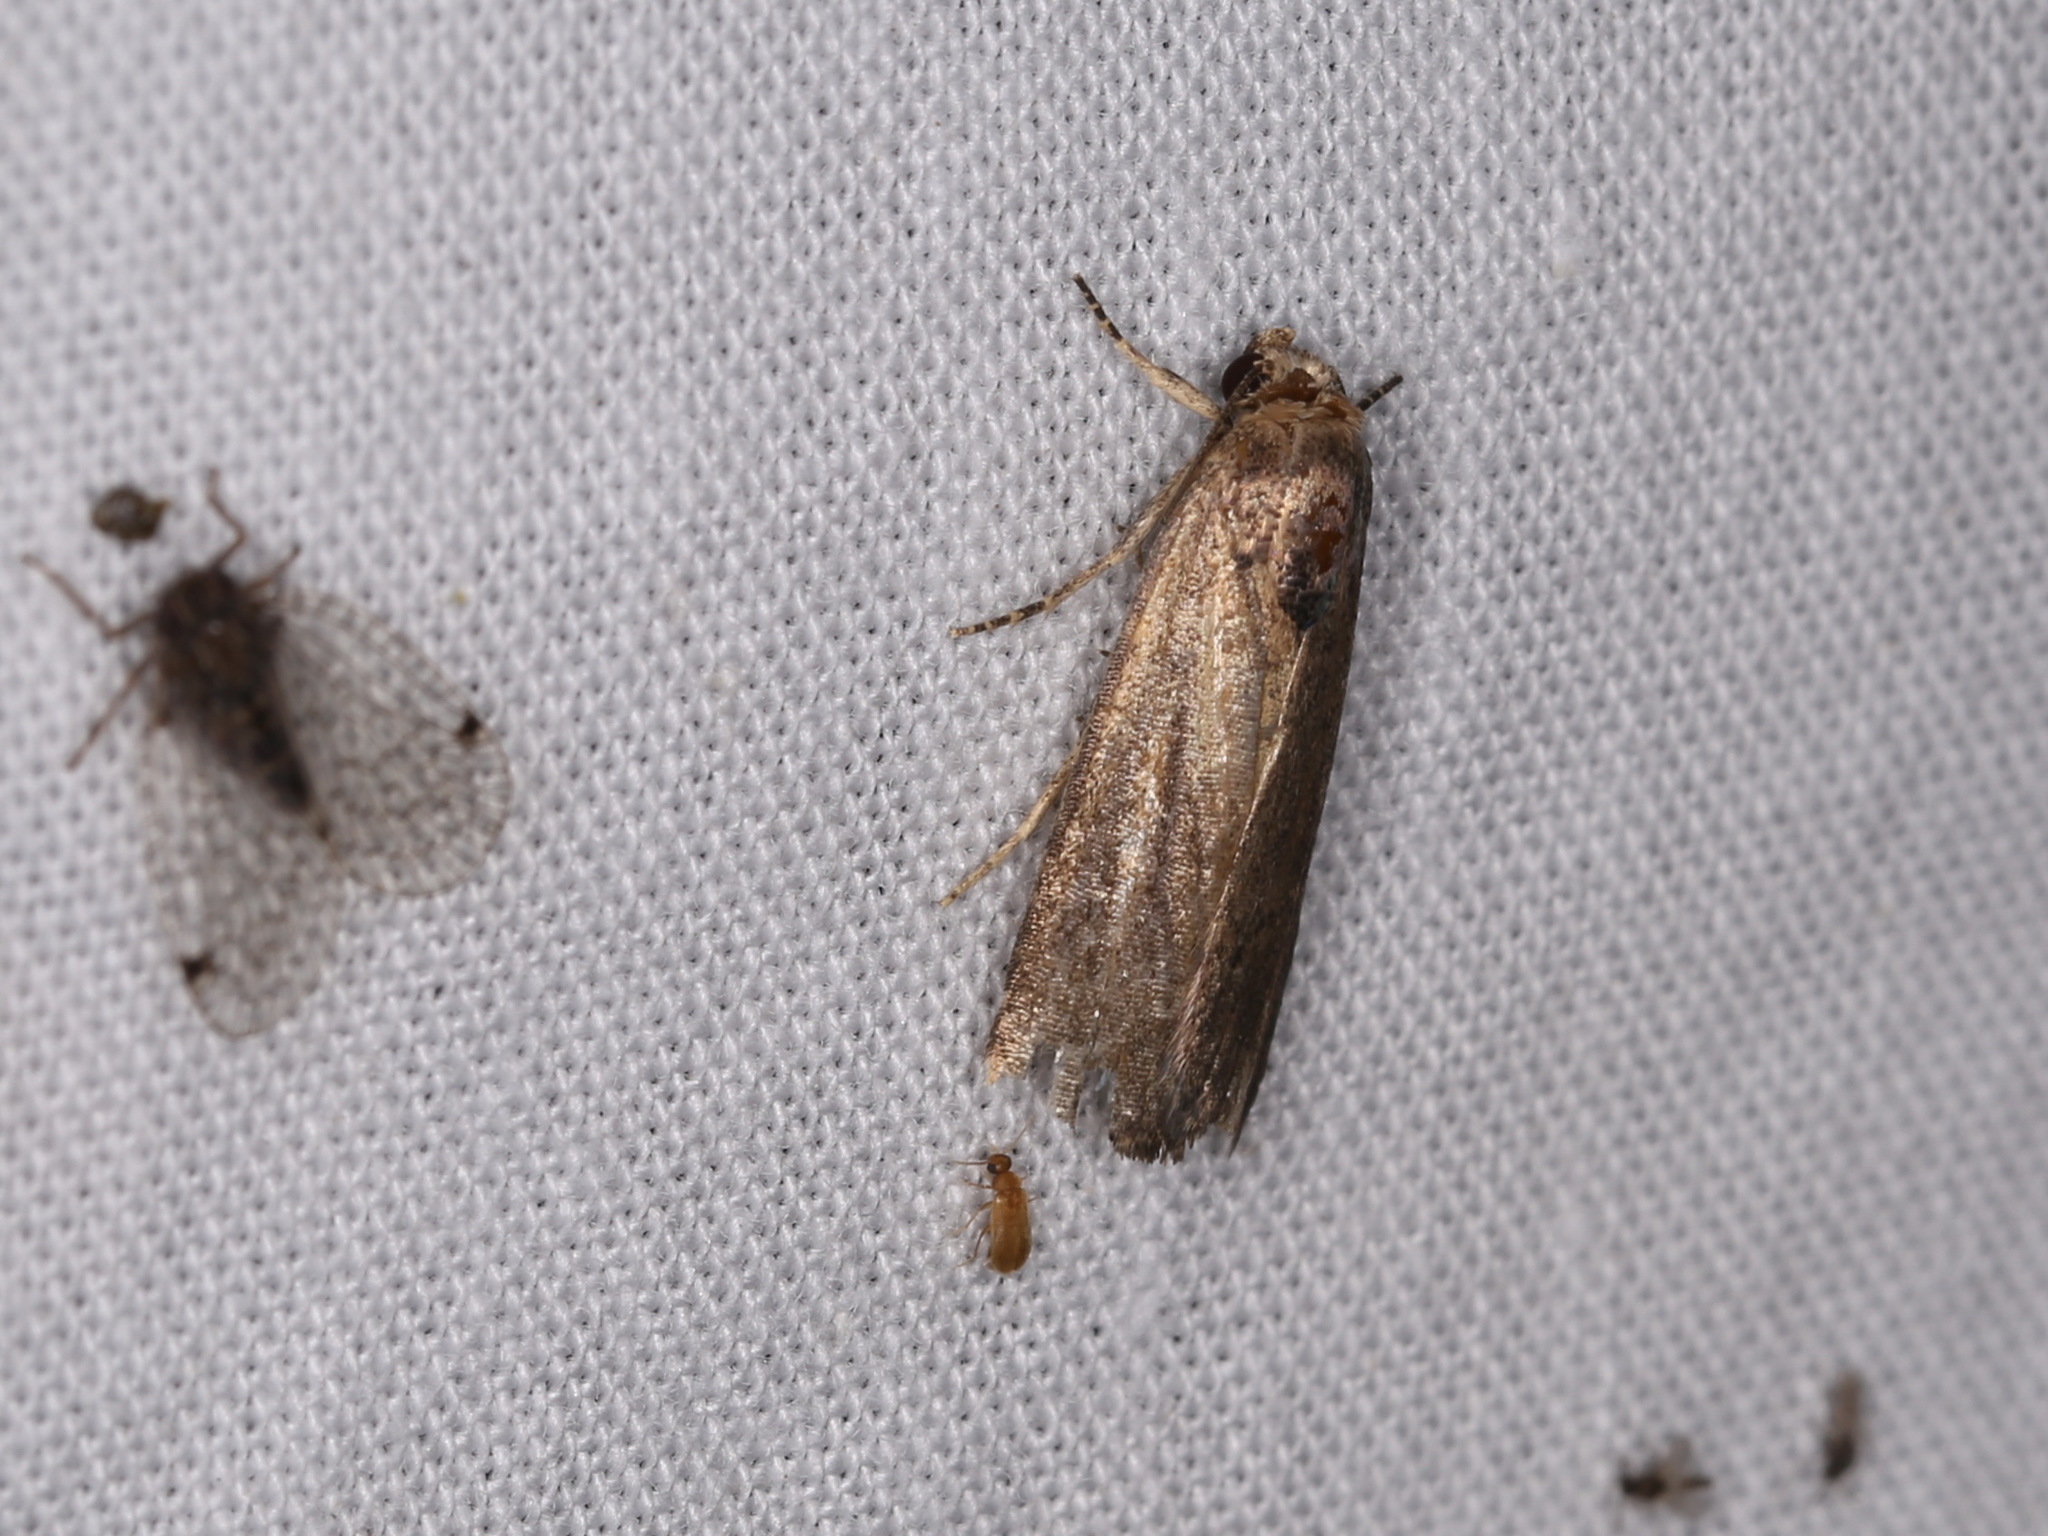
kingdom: Animalia
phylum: Arthropoda
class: Insecta
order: Lepidoptera
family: Noctuidae
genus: Athetis
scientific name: Athetis tenuis
